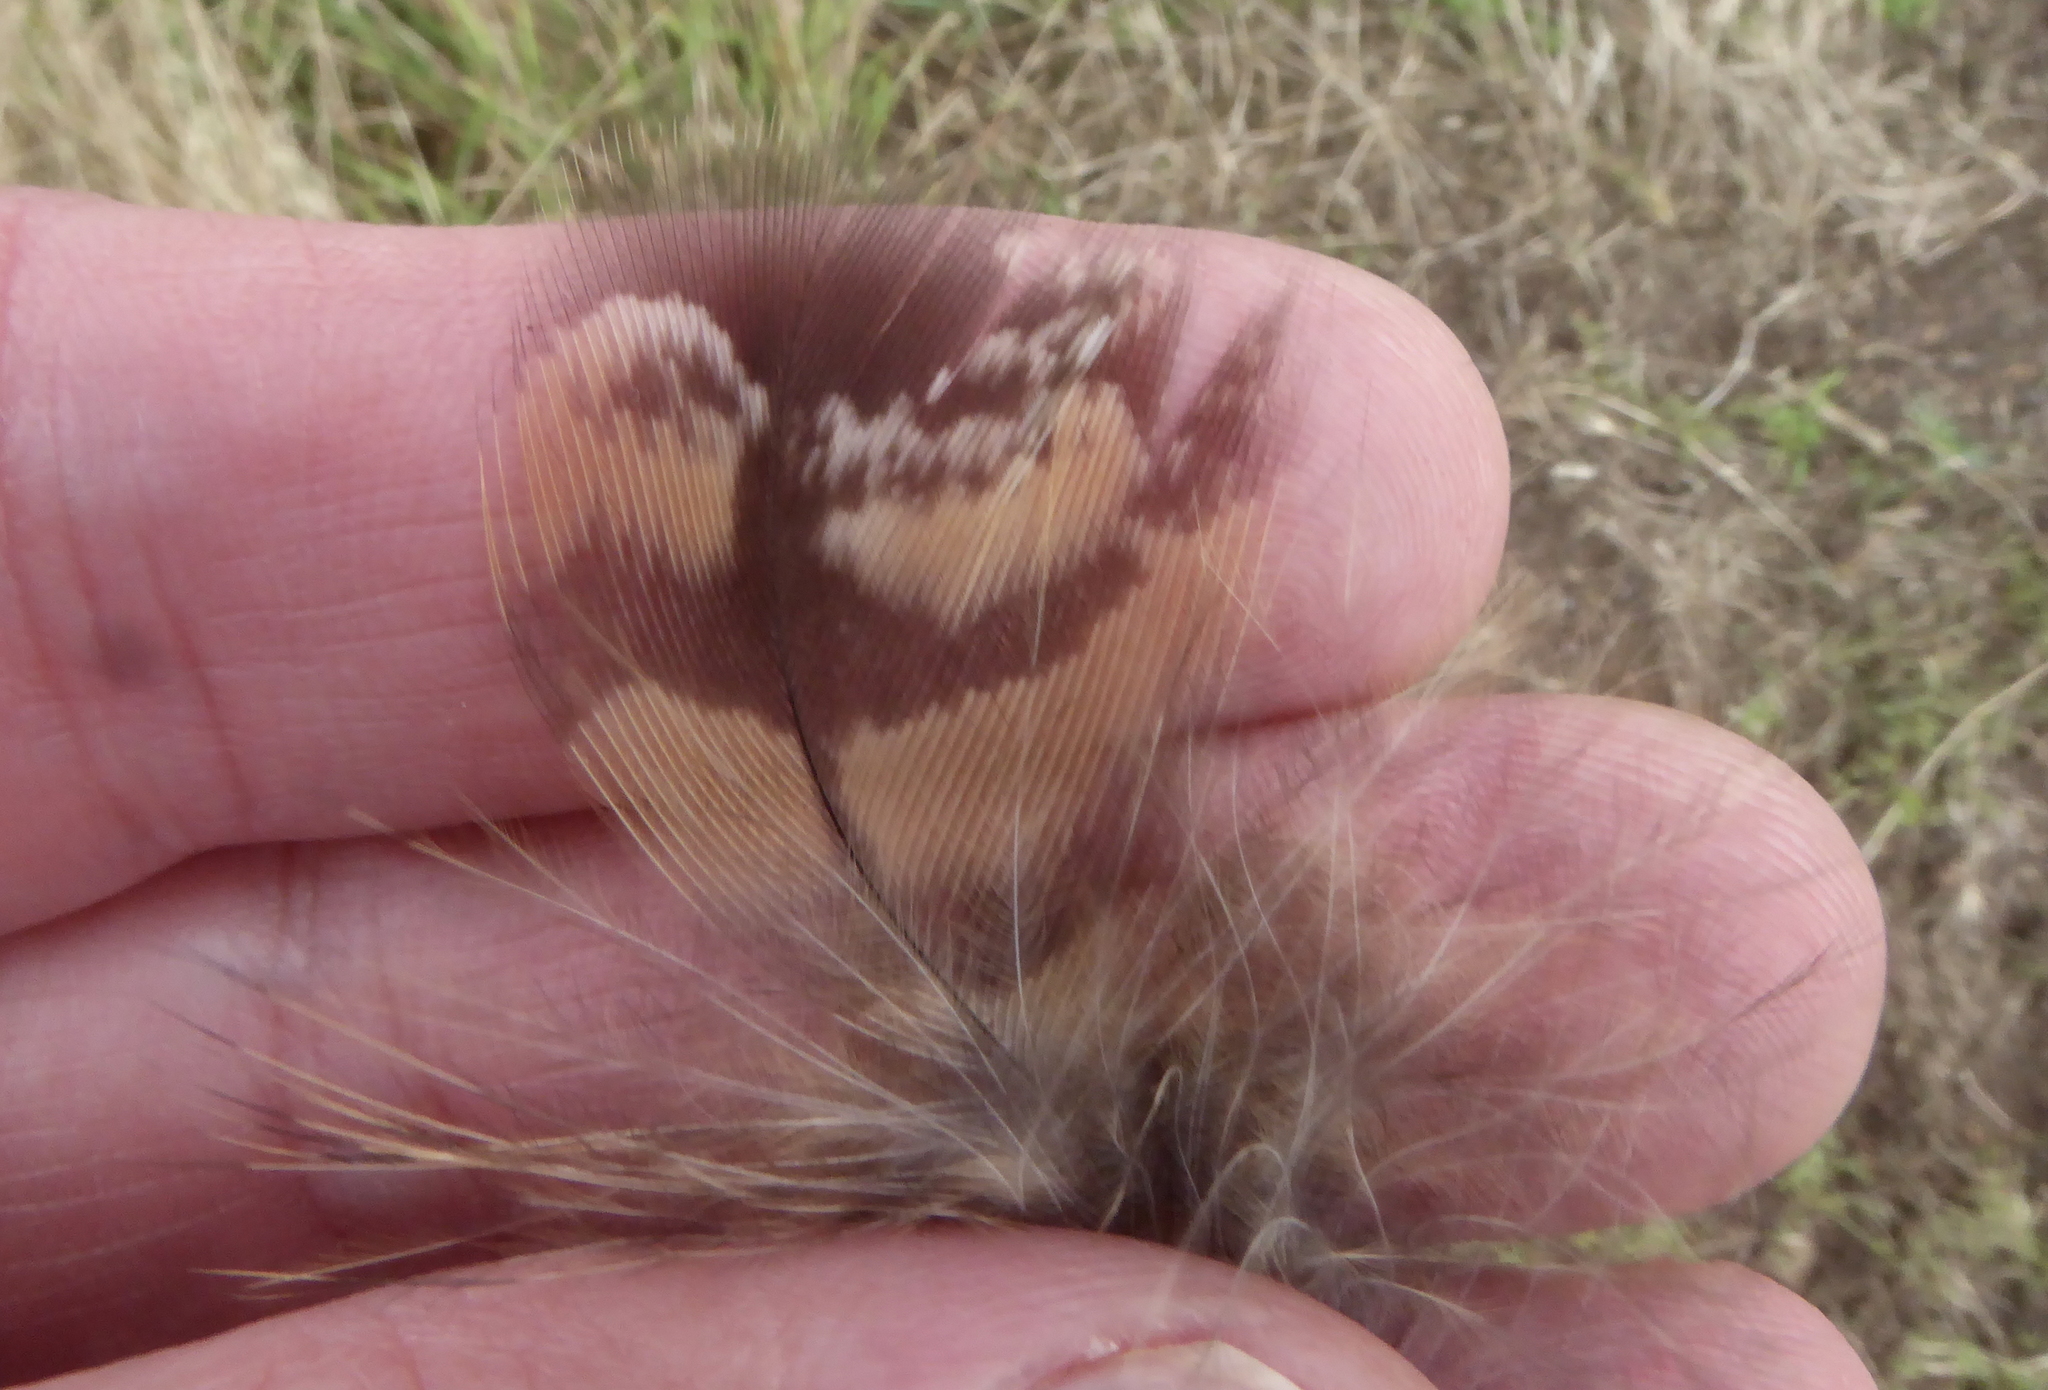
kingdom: Animalia
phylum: Chordata
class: Aves
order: Strigiformes
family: Strigidae
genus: Bubo
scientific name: Bubo virginianus
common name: Great horned owl
